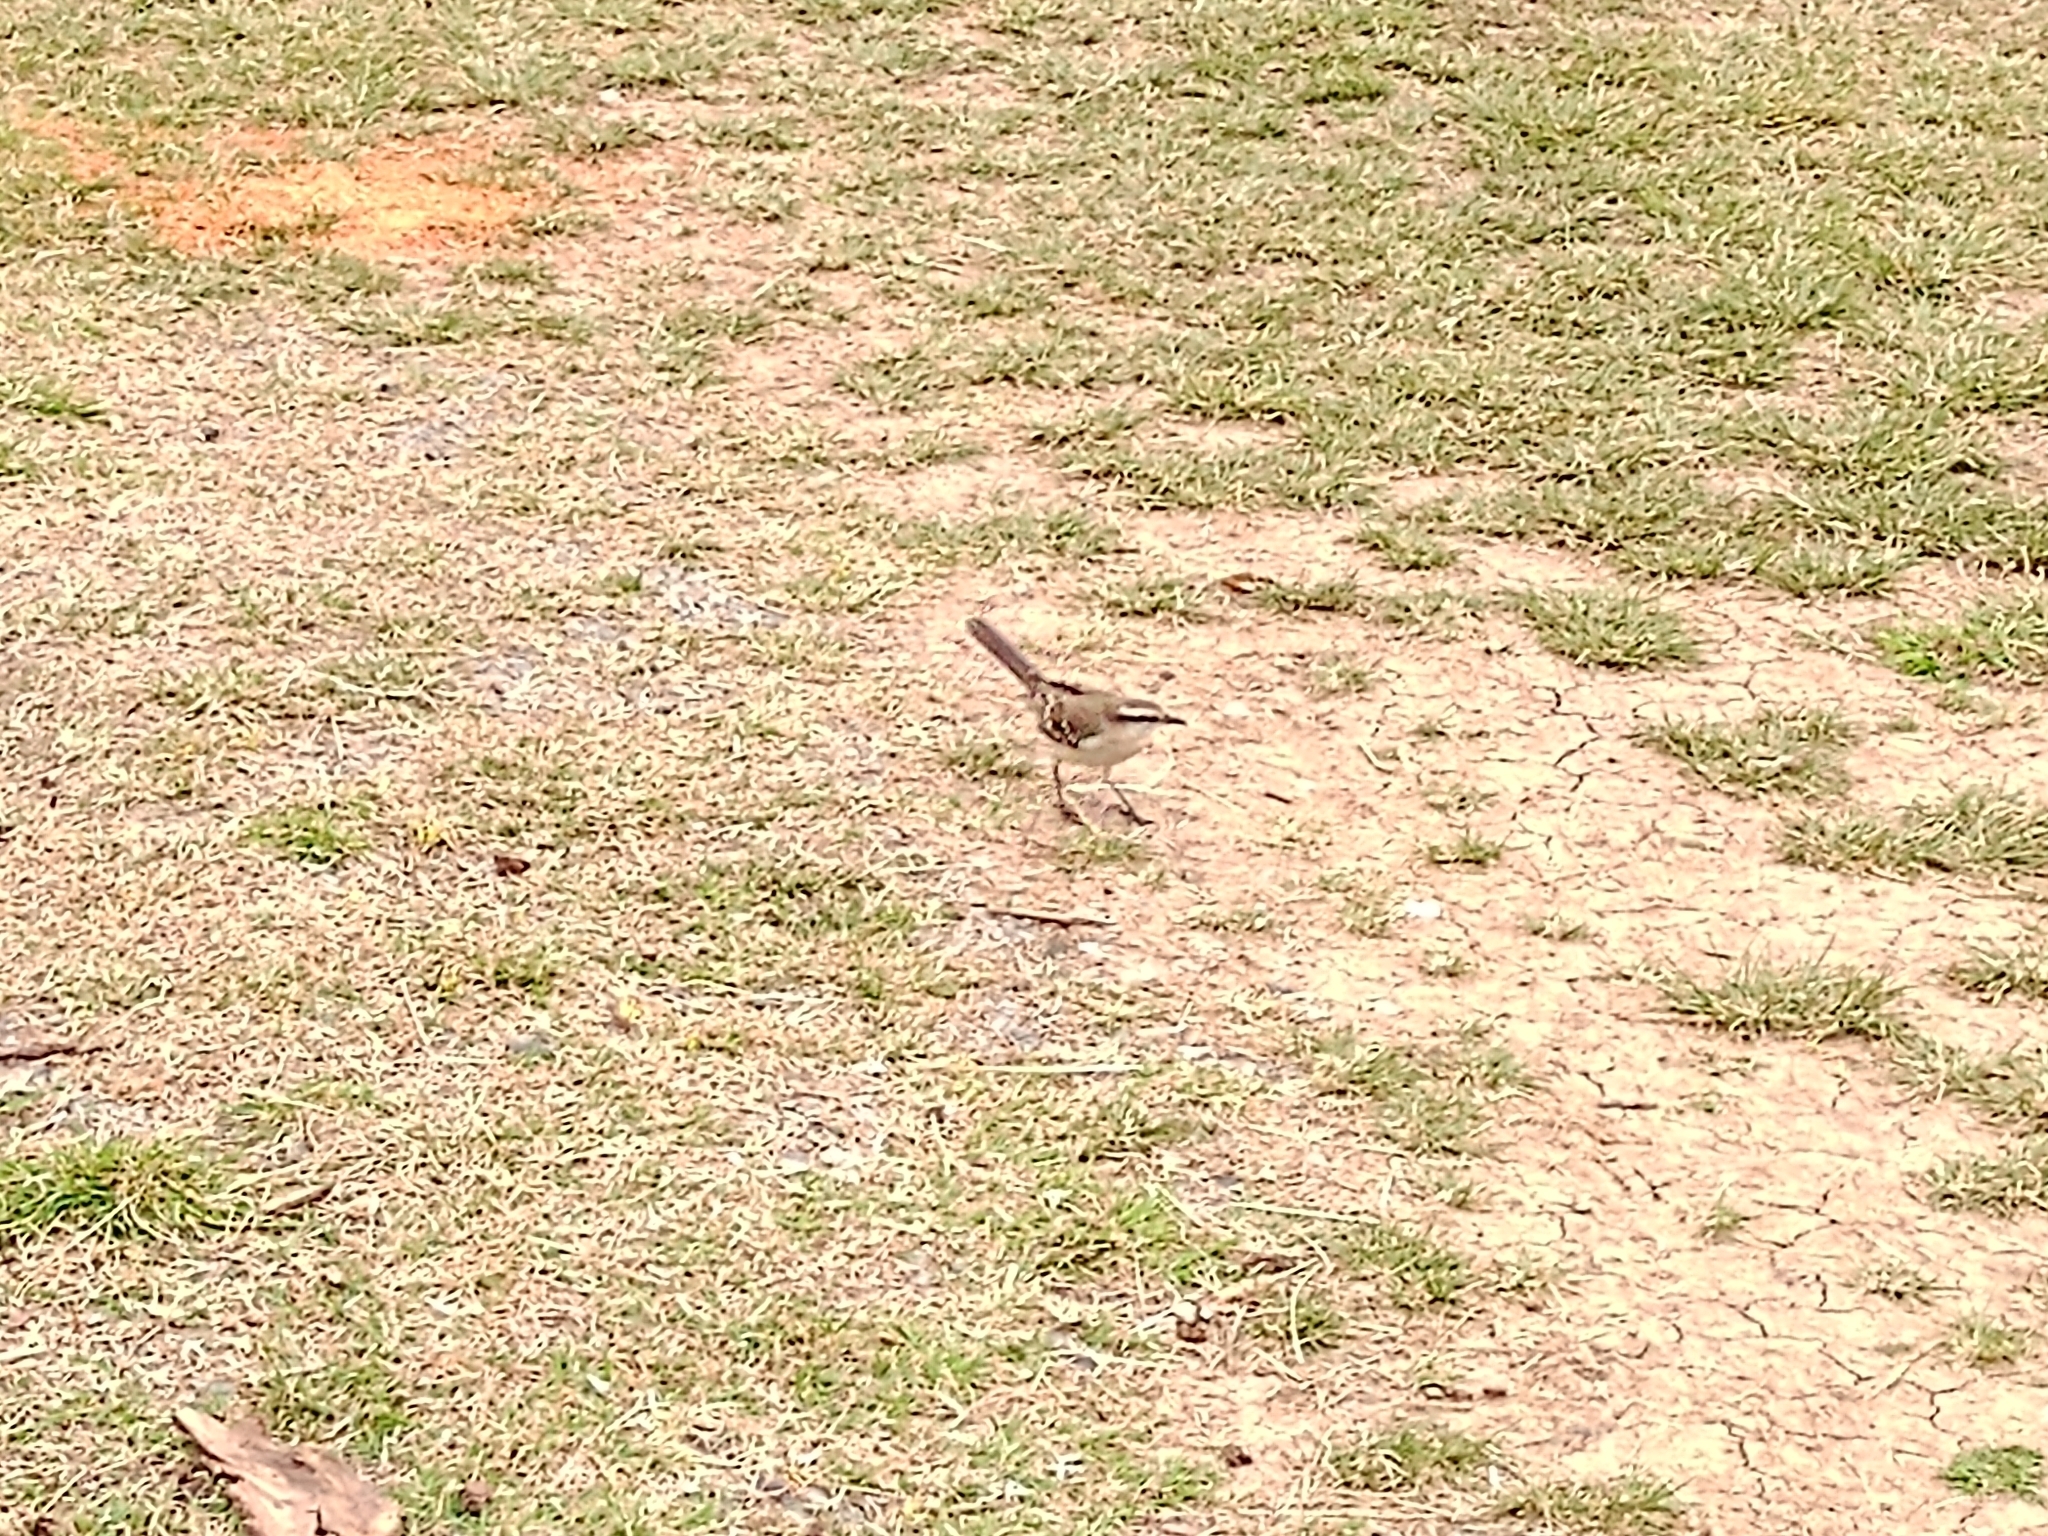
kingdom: Animalia
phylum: Chordata
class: Aves
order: Passeriformes
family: Mimidae
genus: Mimus
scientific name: Mimus saturninus
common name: Chalk-browed mockingbird
